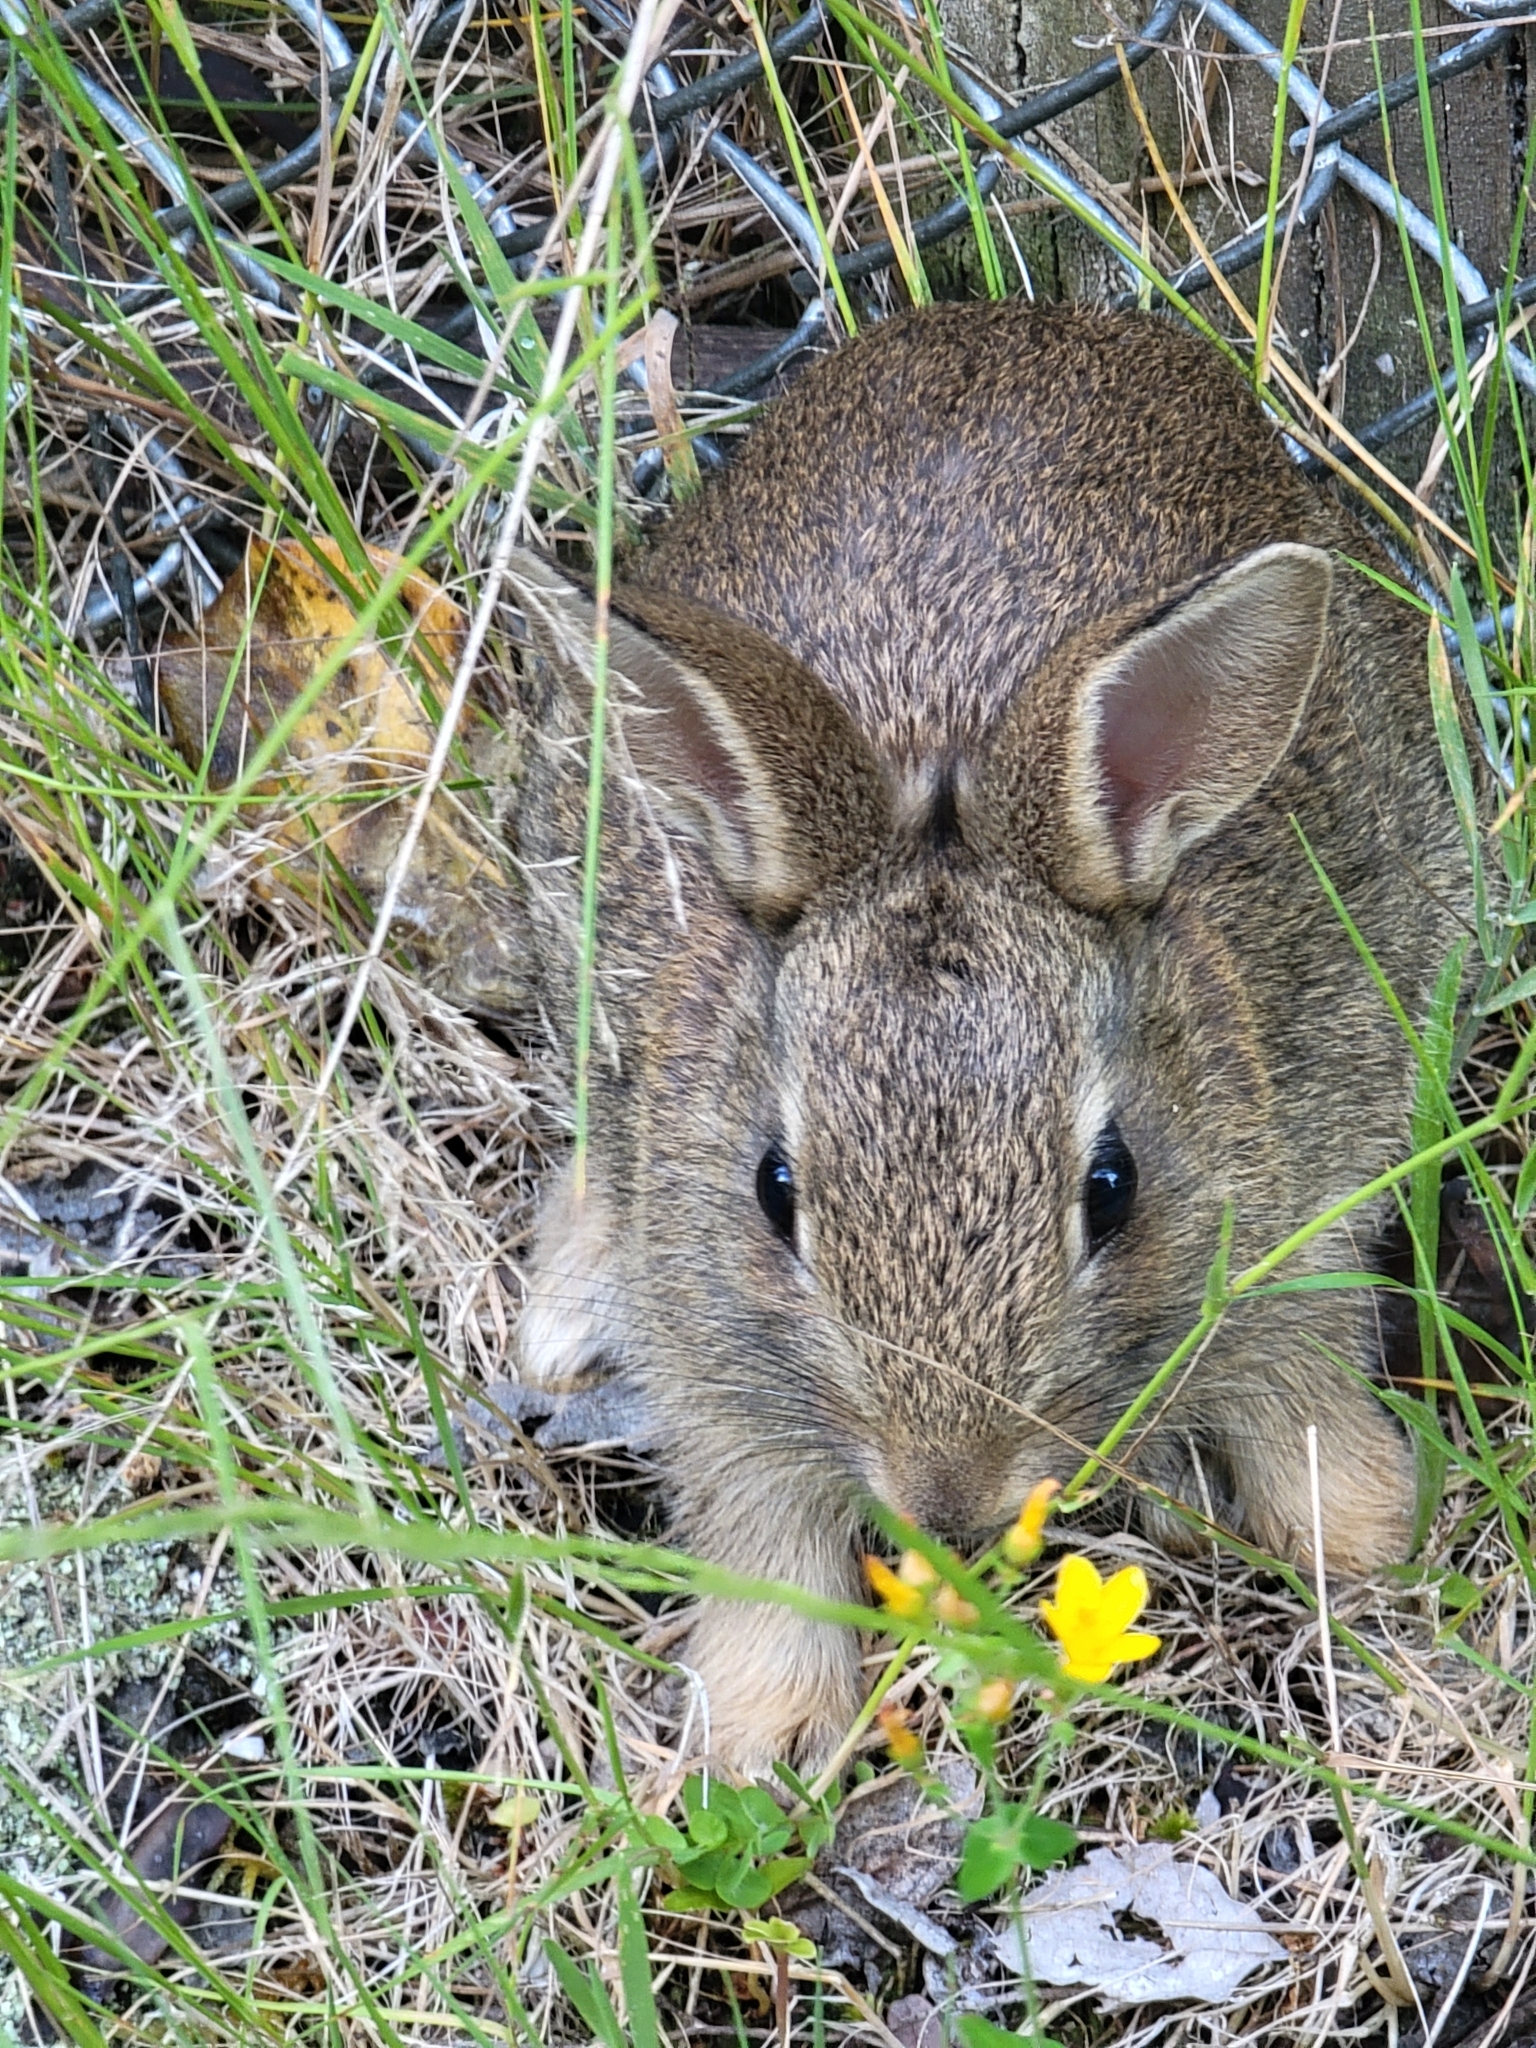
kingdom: Animalia
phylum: Chordata
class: Mammalia
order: Lagomorpha
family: Leporidae
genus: Oryctolagus
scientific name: Oryctolagus cuniculus
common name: European rabbit
